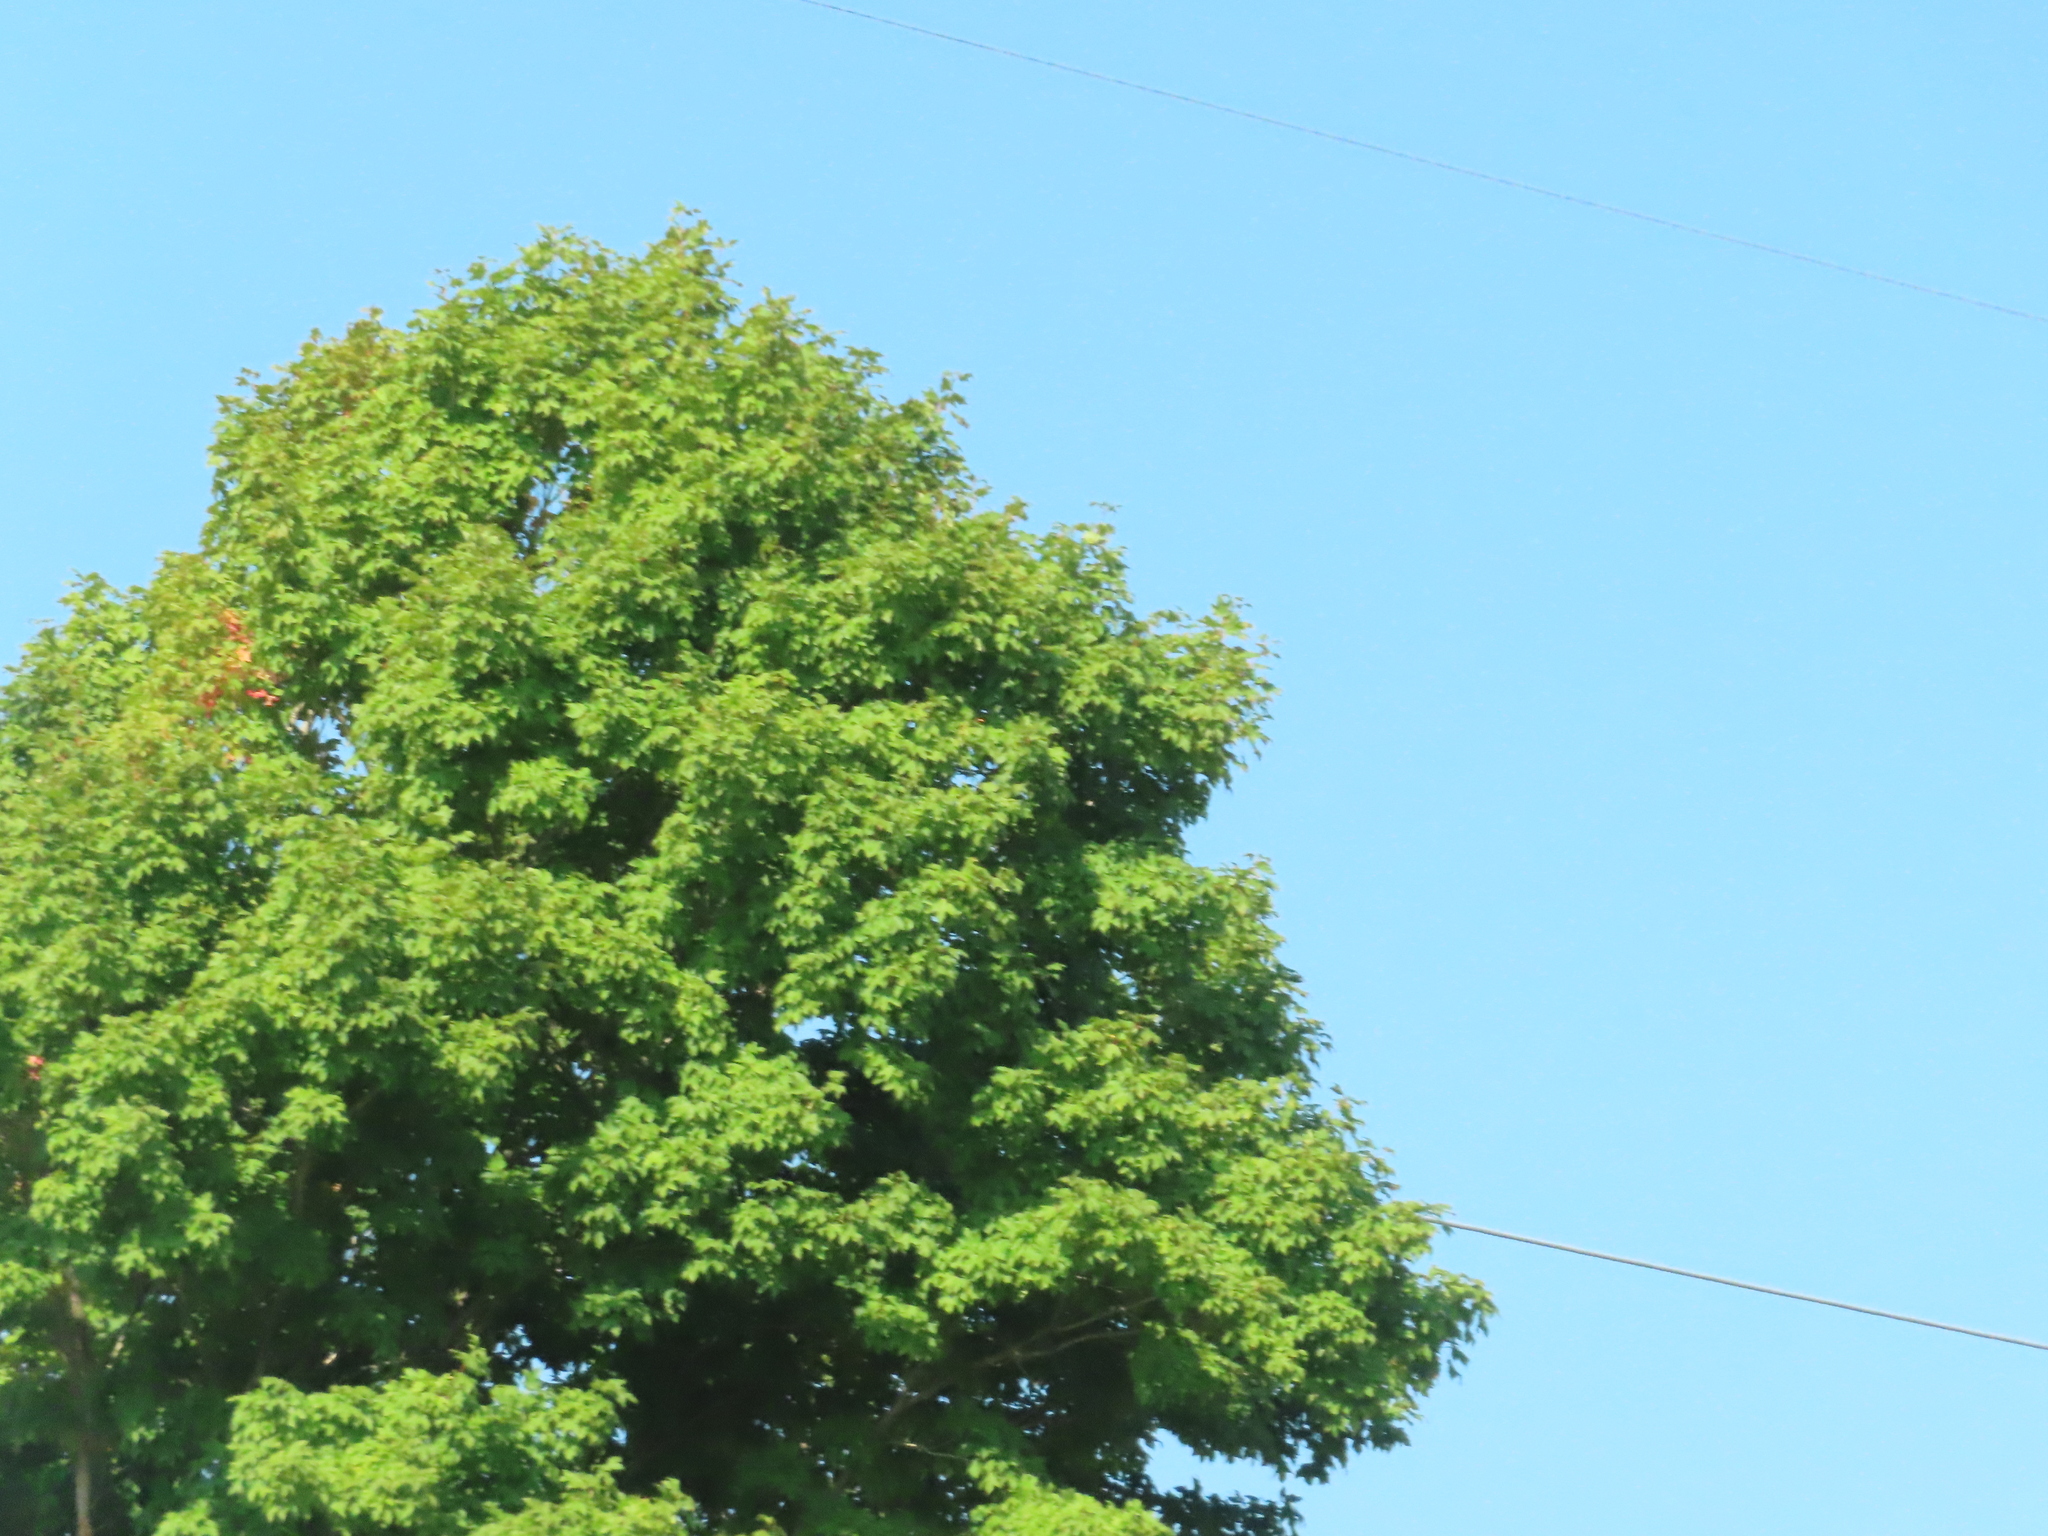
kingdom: Plantae
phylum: Tracheophyta
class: Magnoliopsida
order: Sapindales
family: Sapindaceae
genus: Acer
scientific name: Acer
